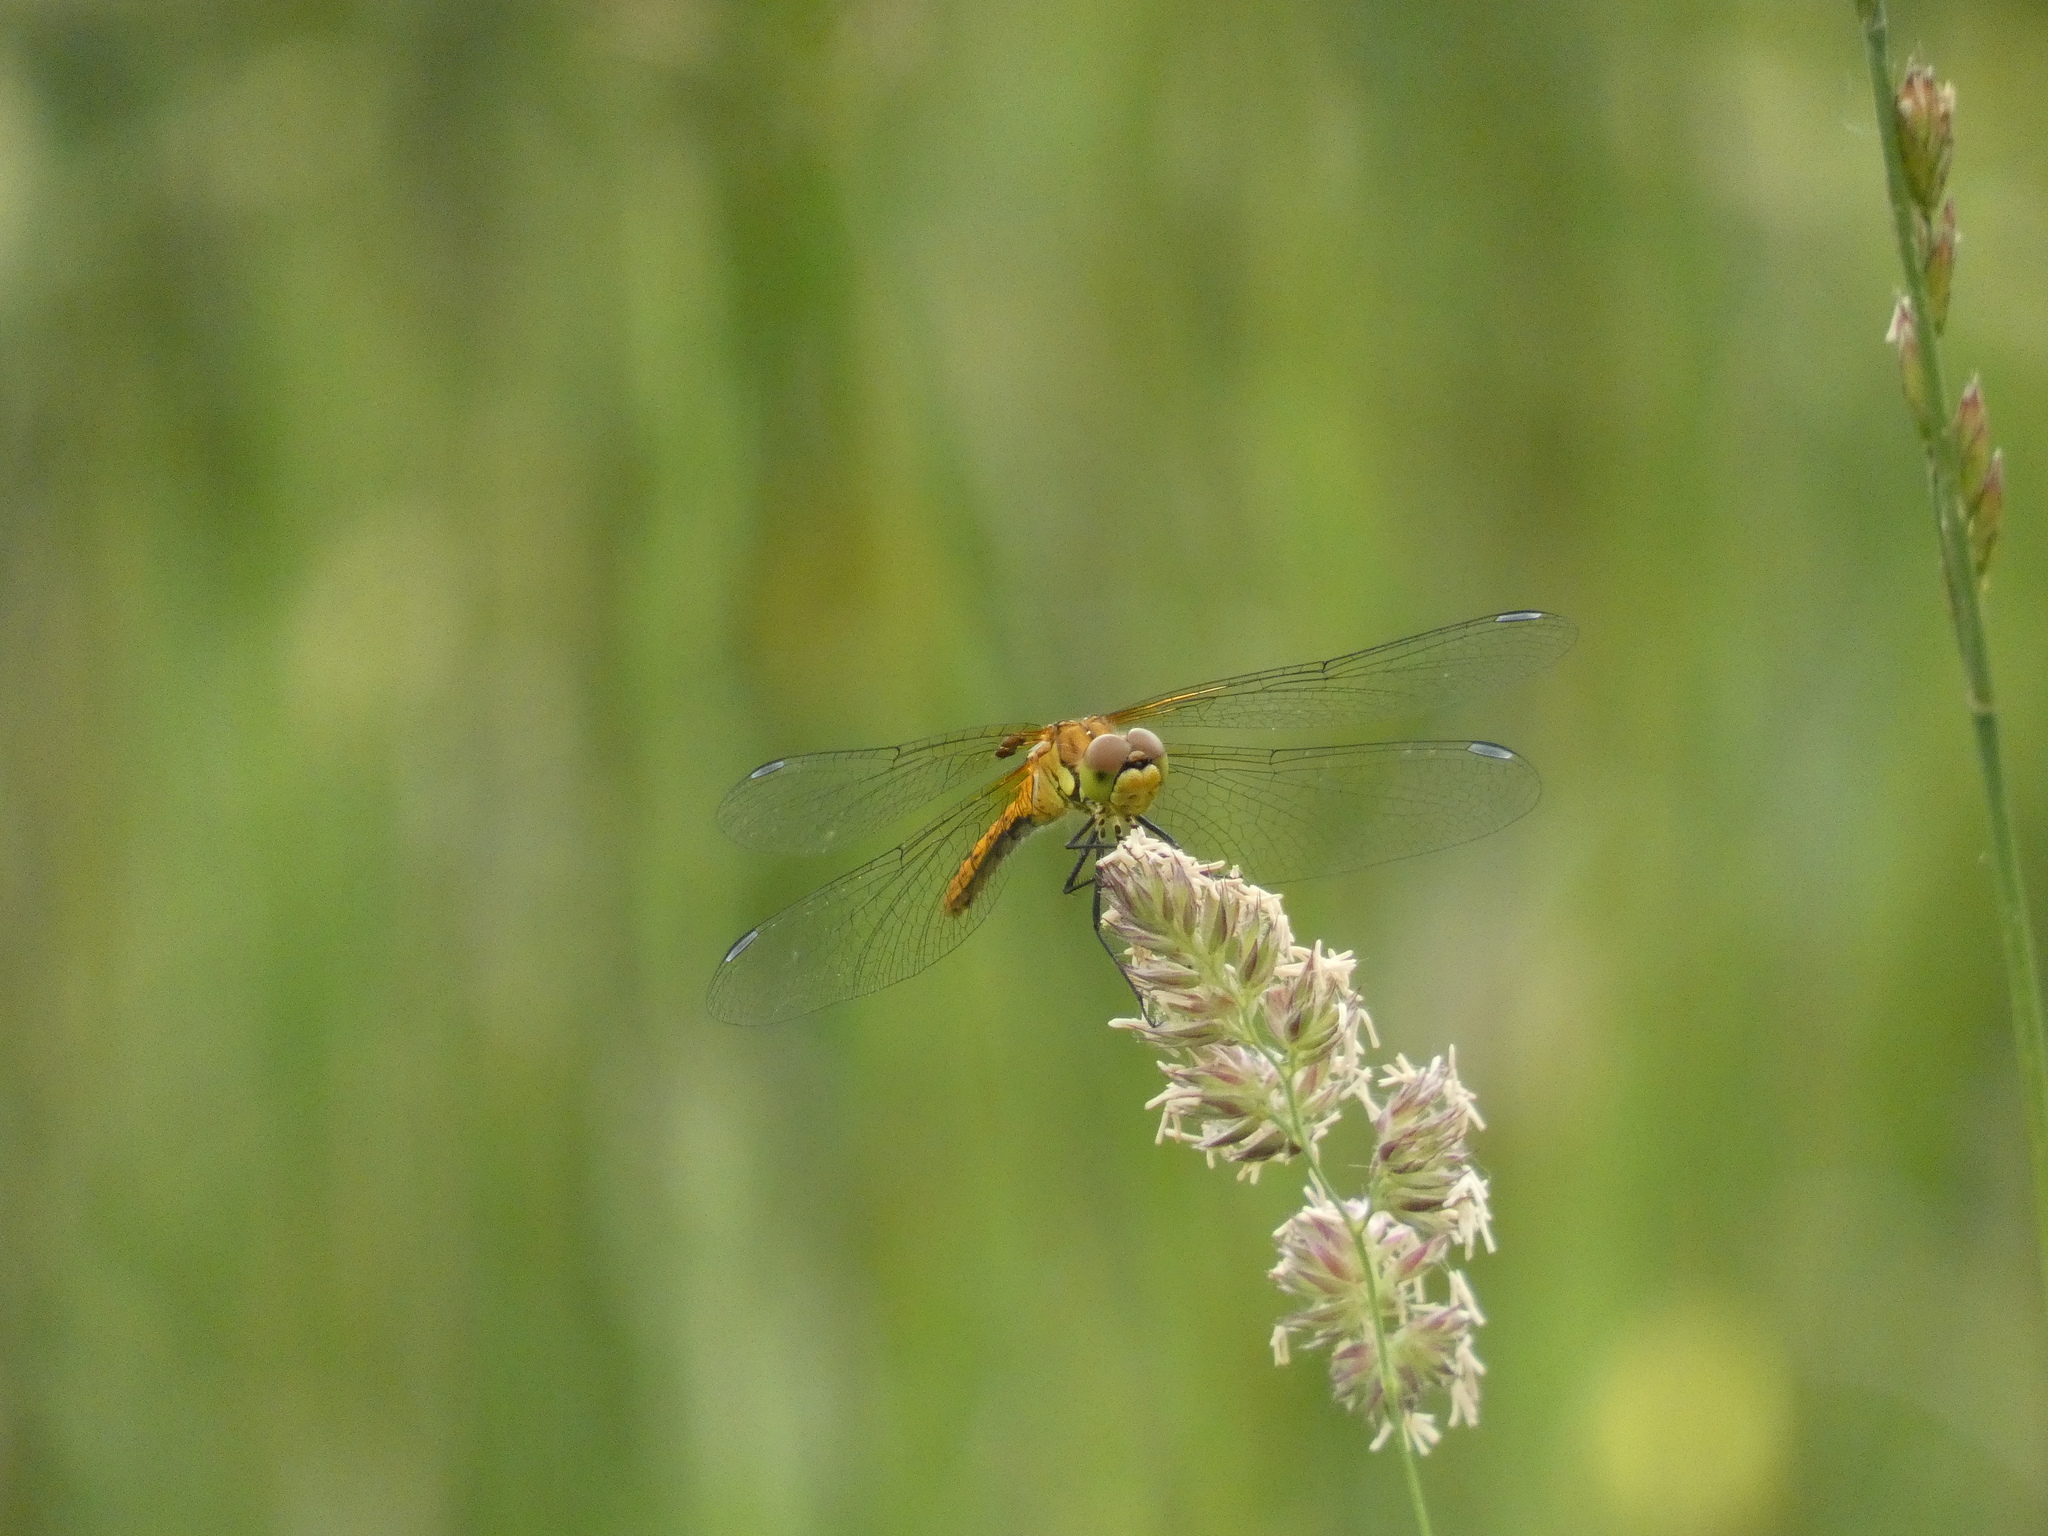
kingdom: Animalia
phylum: Arthropoda
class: Insecta
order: Odonata
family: Libellulidae
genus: Sympetrum
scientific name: Sympetrum sanguineum
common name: Ruddy darter
